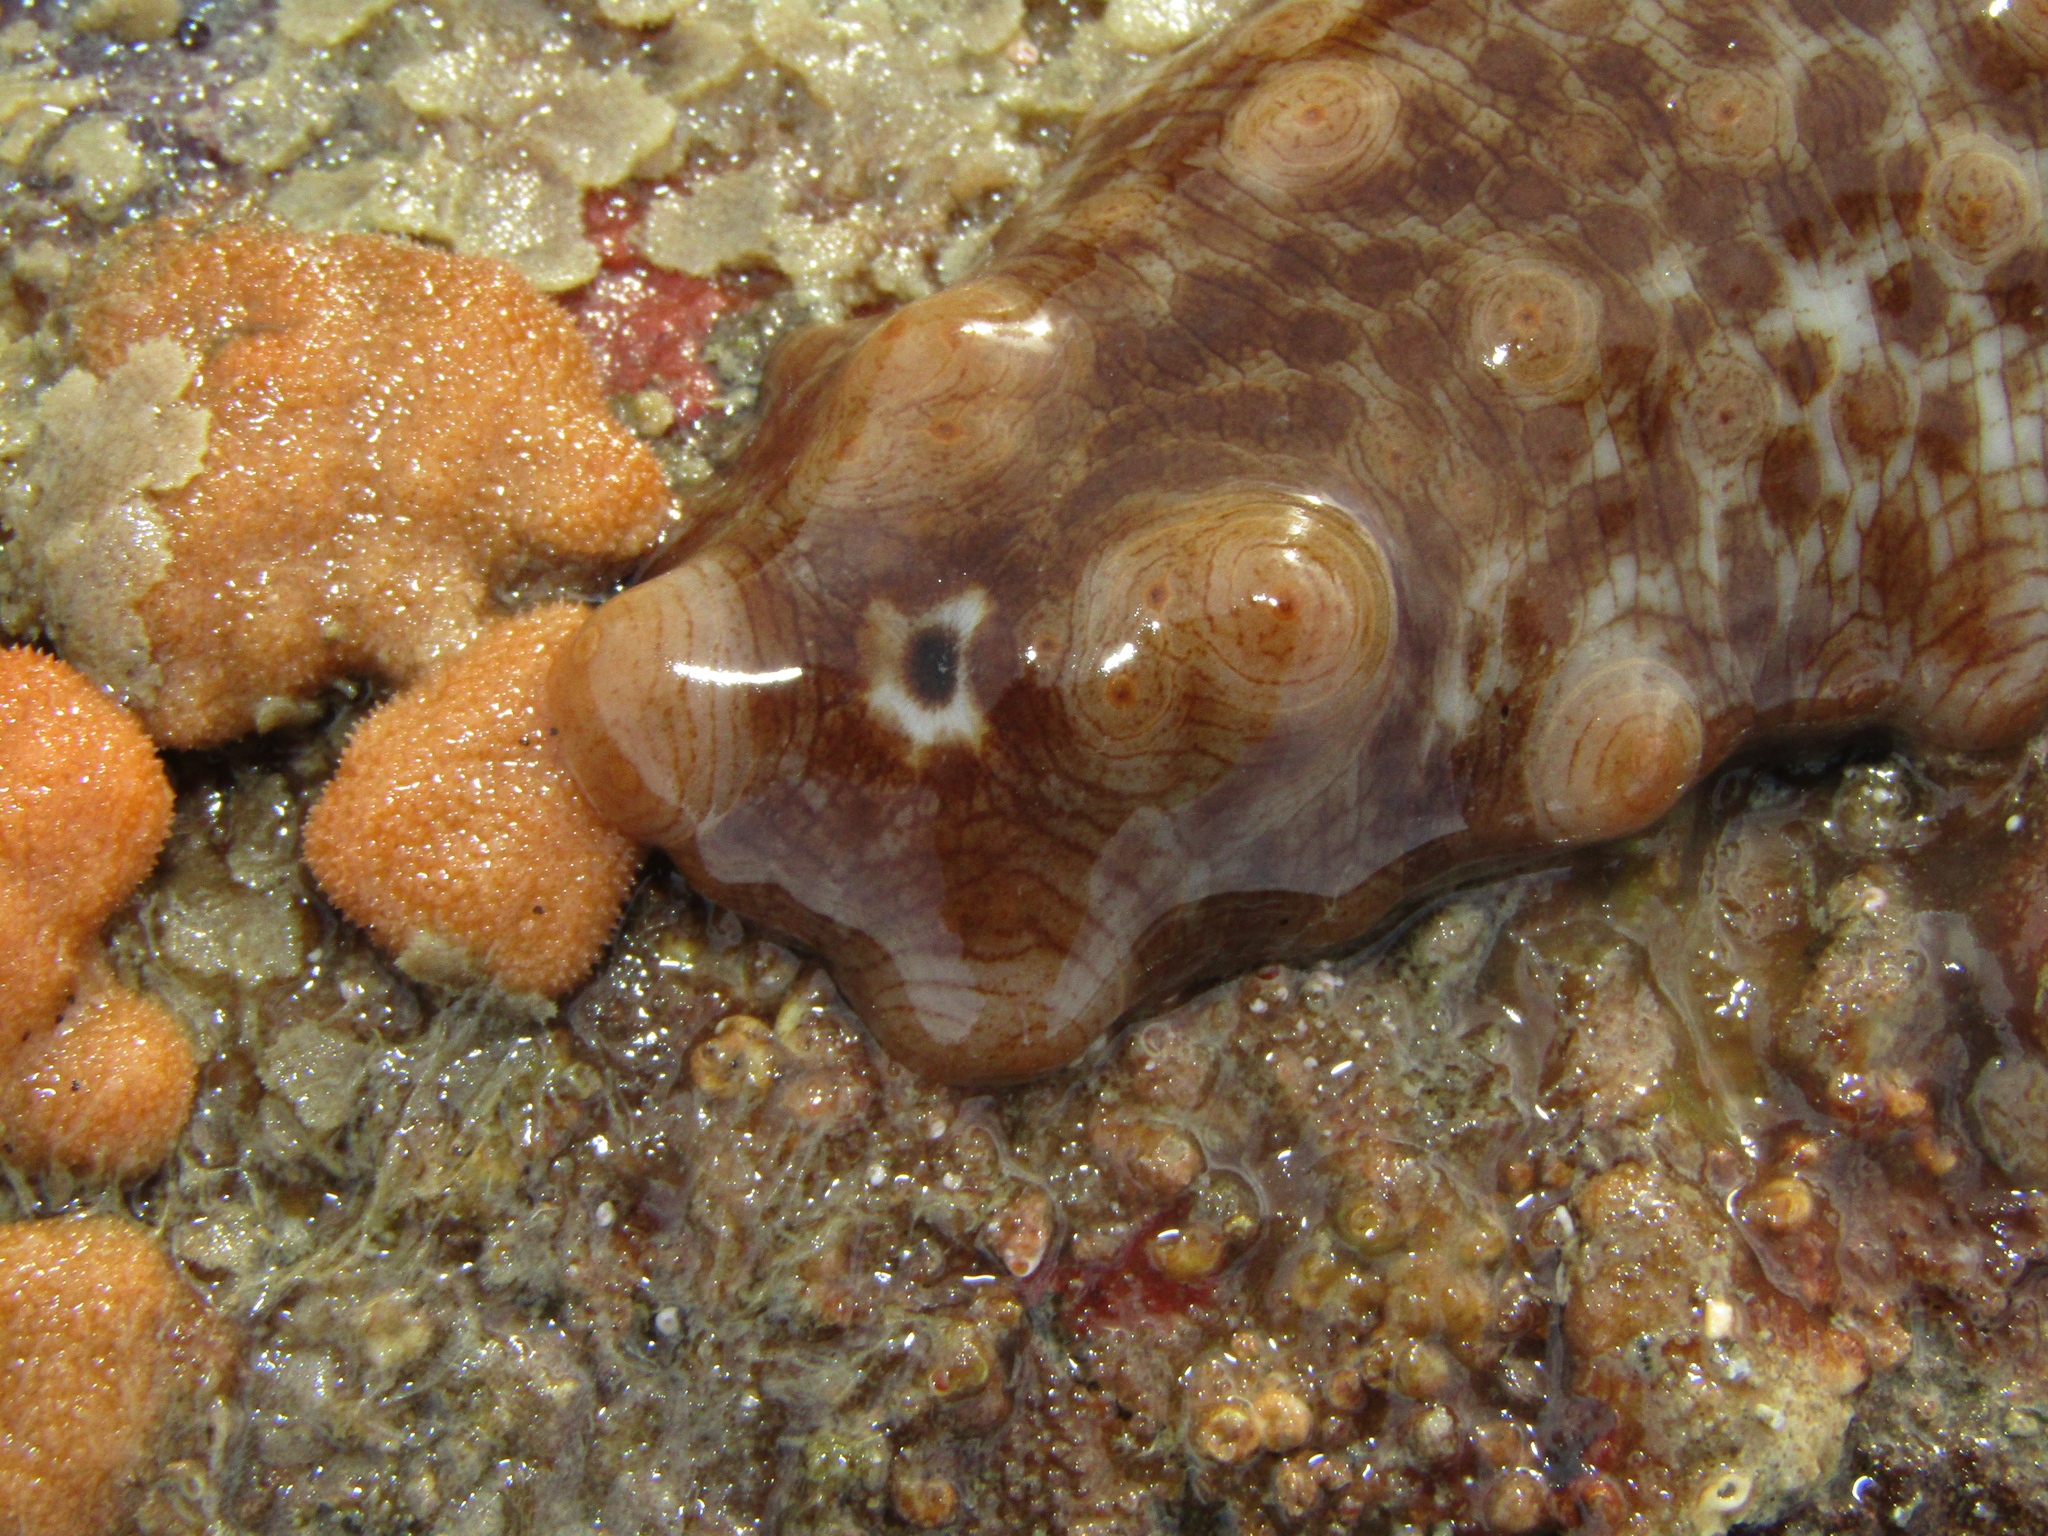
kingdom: Animalia
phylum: Echinodermata
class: Holothuroidea
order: Synallactida
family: Stichopodidae
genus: Australostichopus
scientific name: Australostichopus mollis
